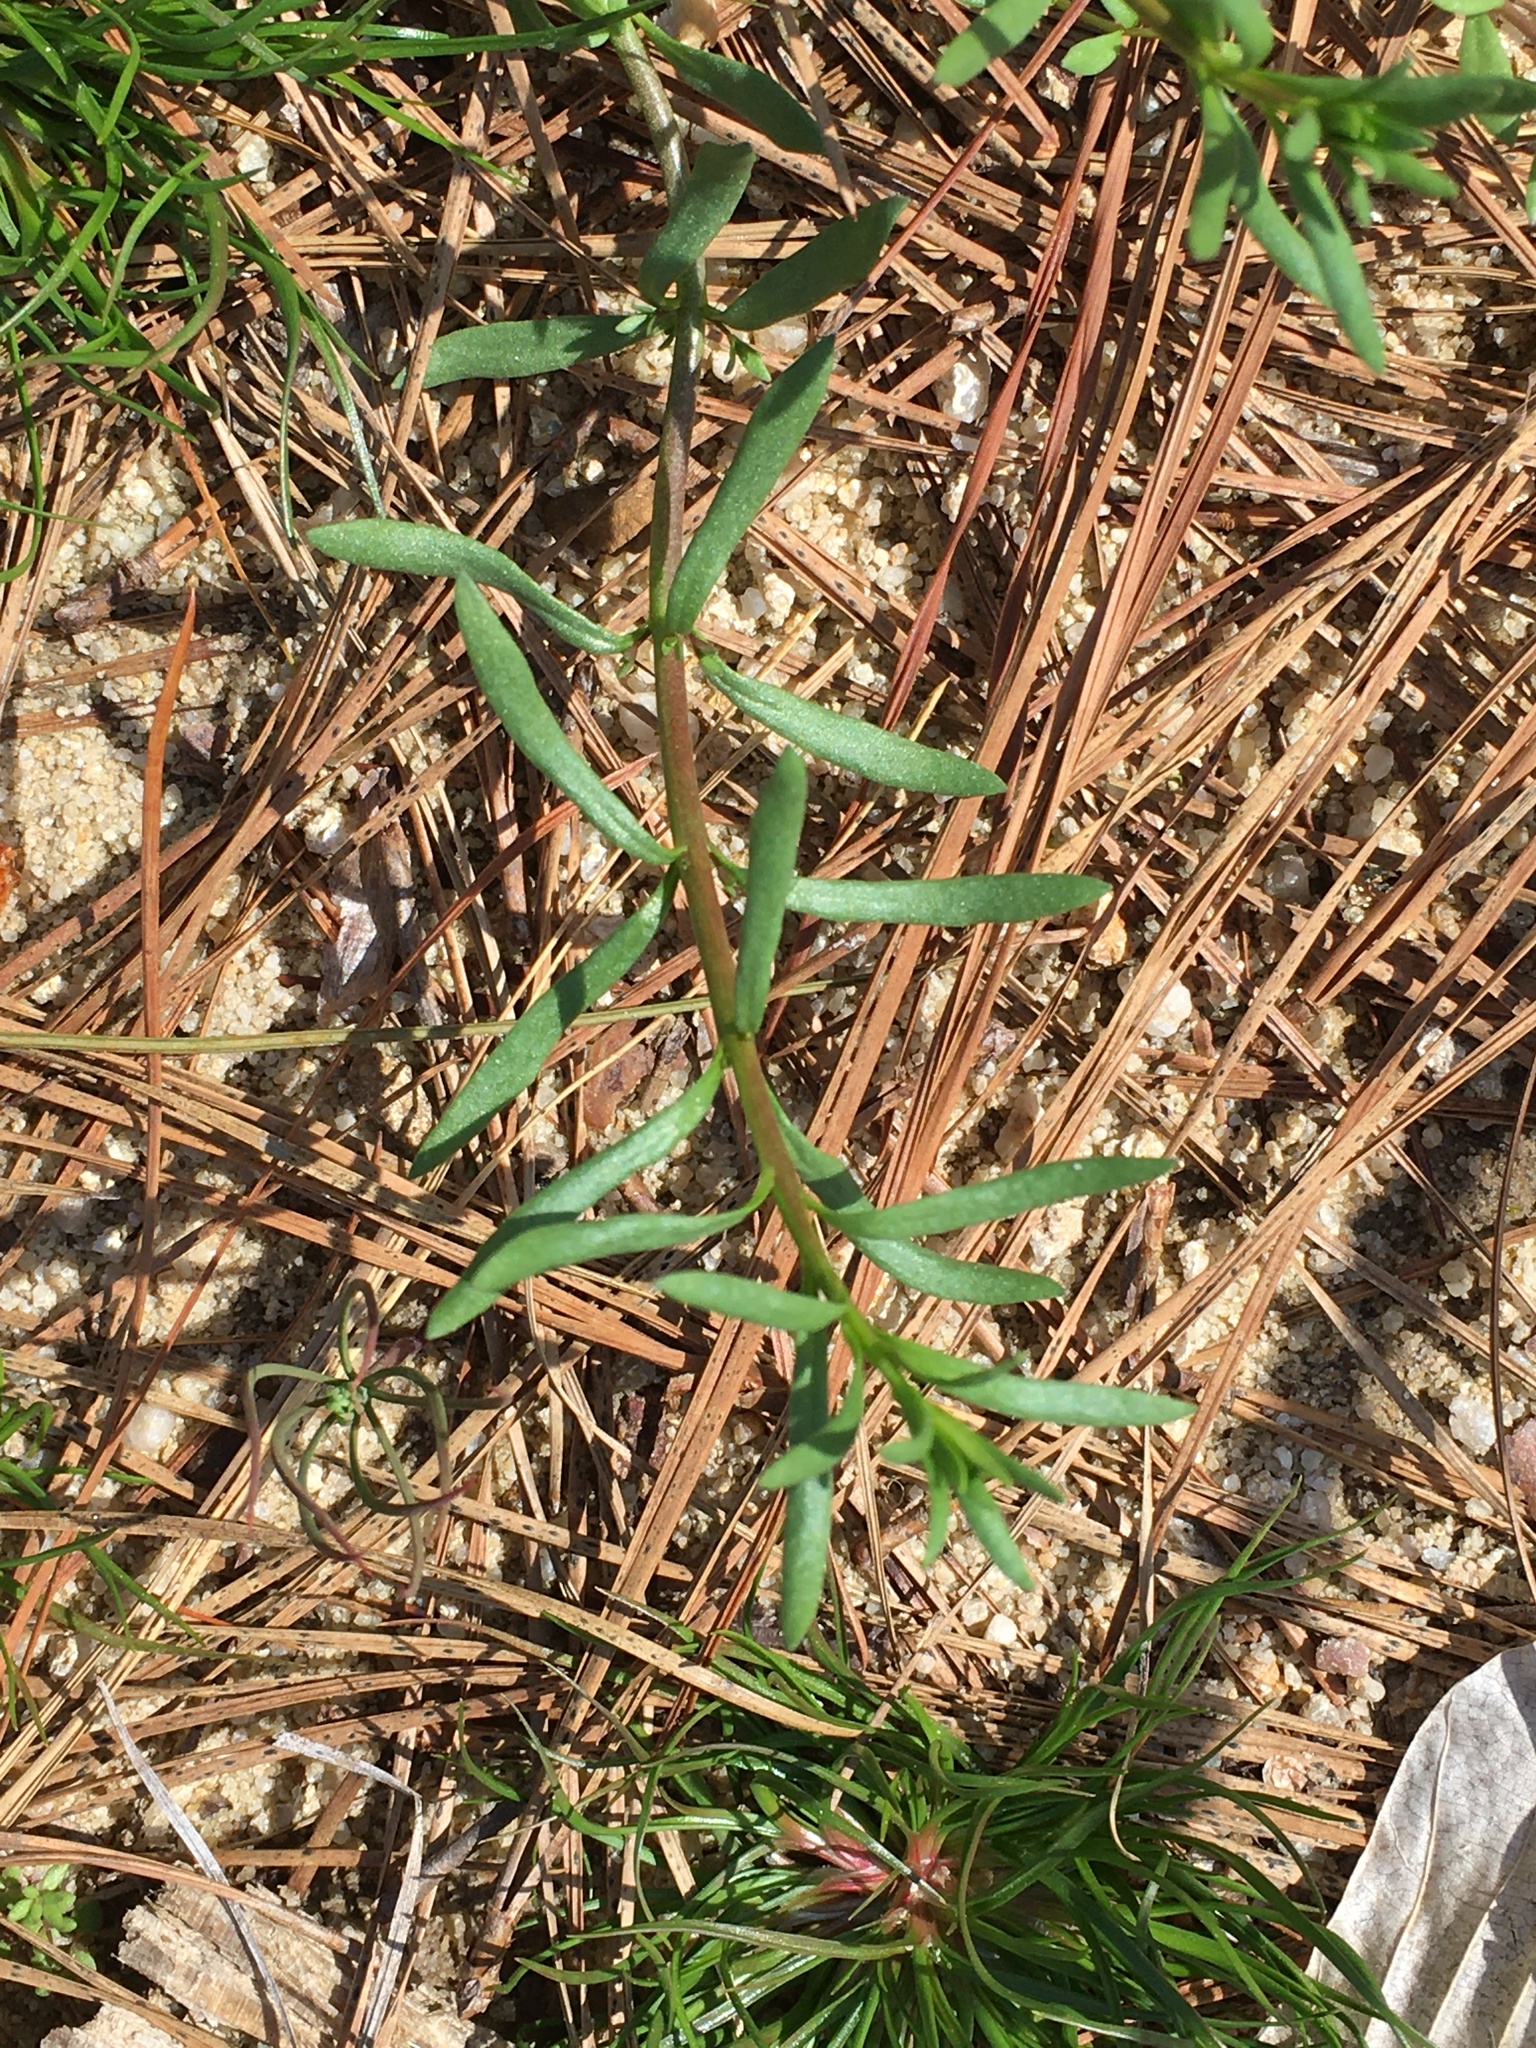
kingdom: Plantae
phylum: Tracheophyta
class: Magnoliopsida
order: Lamiales
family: Plantaginaceae
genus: Nuttallanthus
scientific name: Nuttallanthus canadensis
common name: Blue toadflax
